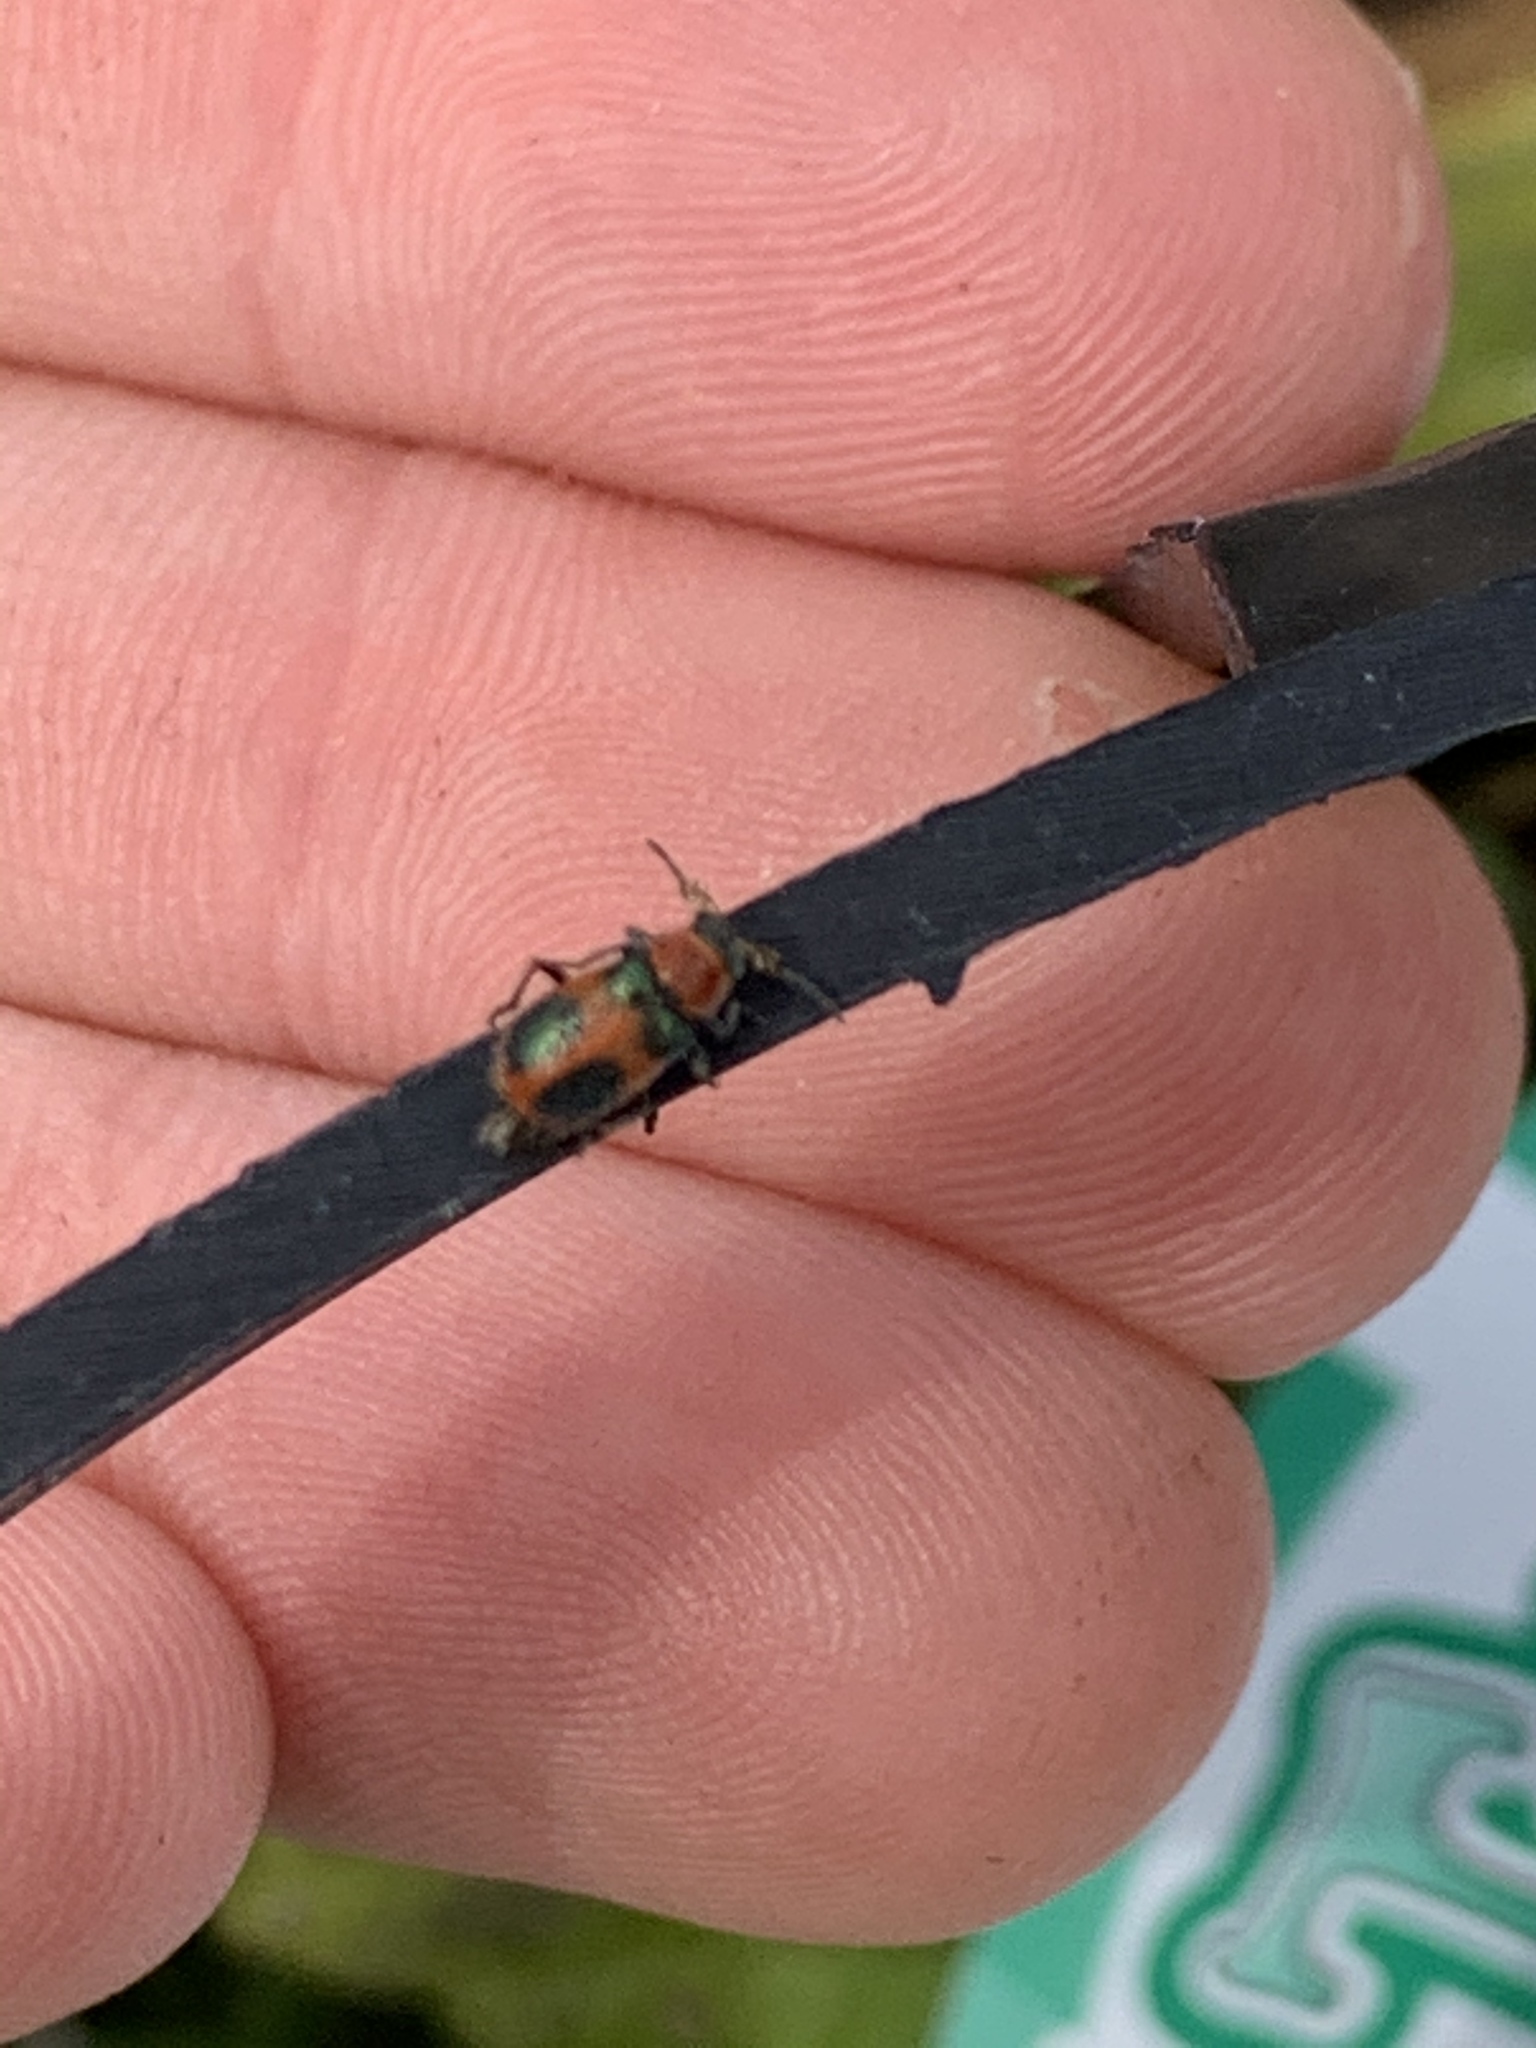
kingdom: Animalia
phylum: Arthropoda
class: Insecta
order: Coleoptera
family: Melyridae
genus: Collops
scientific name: Collops quadrimaculatus
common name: Four-spotted collops
